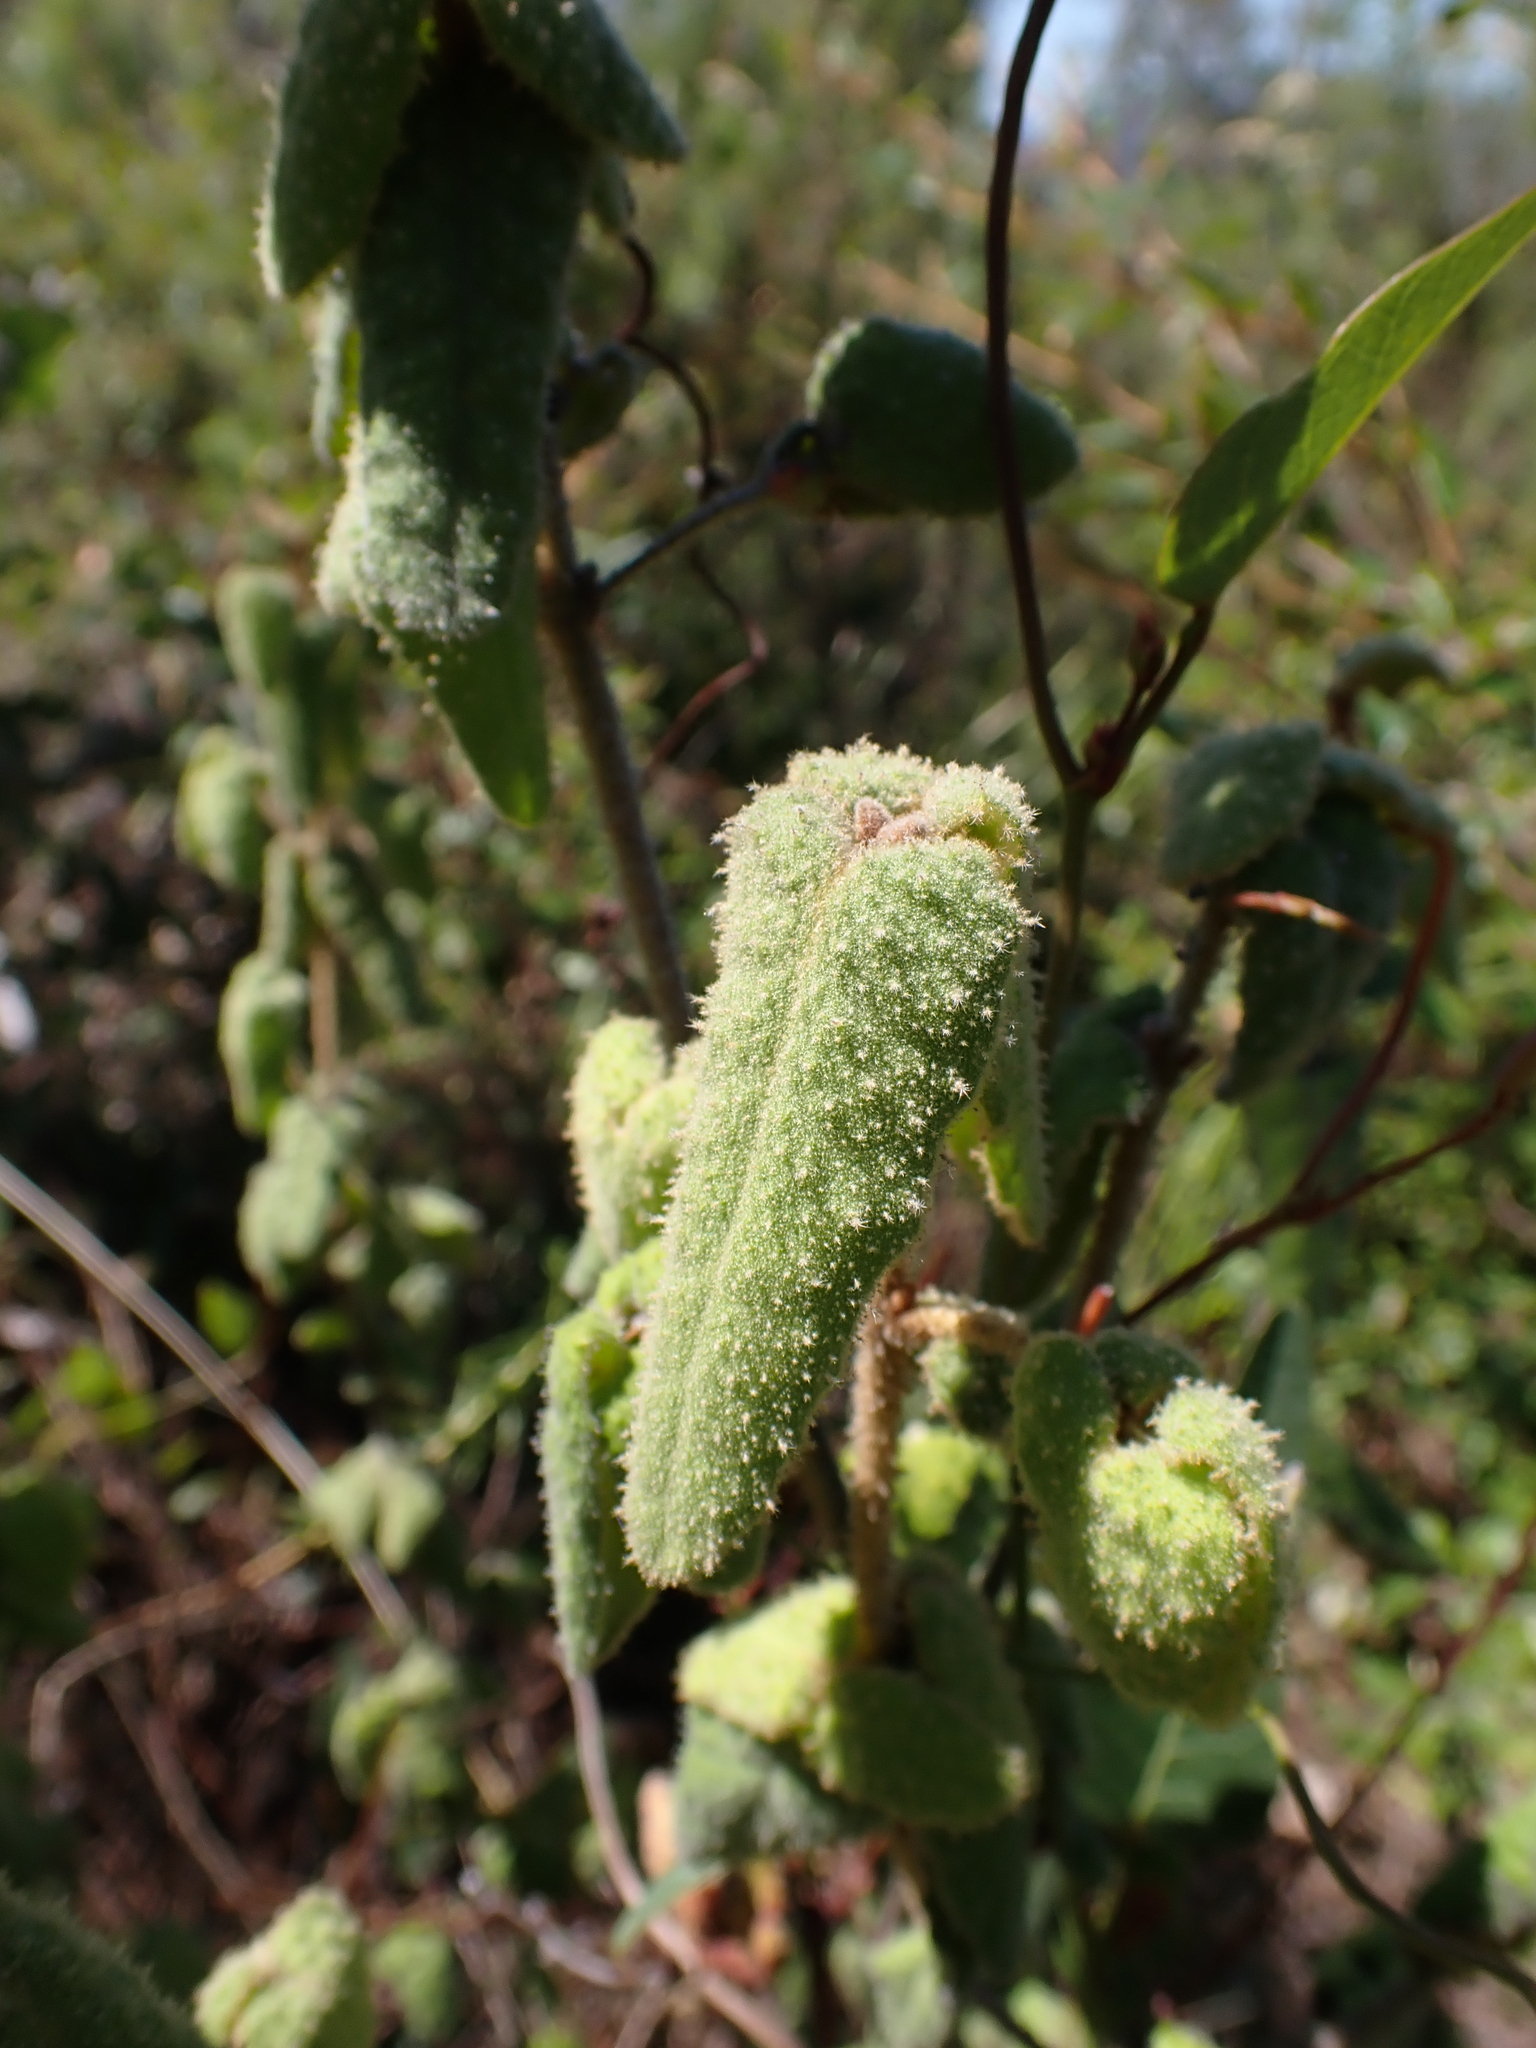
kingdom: Plantae
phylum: Tracheophyta
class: Magnoliopsida
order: Sapindales
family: Rutaceae
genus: Correa
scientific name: Correa reflexa
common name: Common correa
